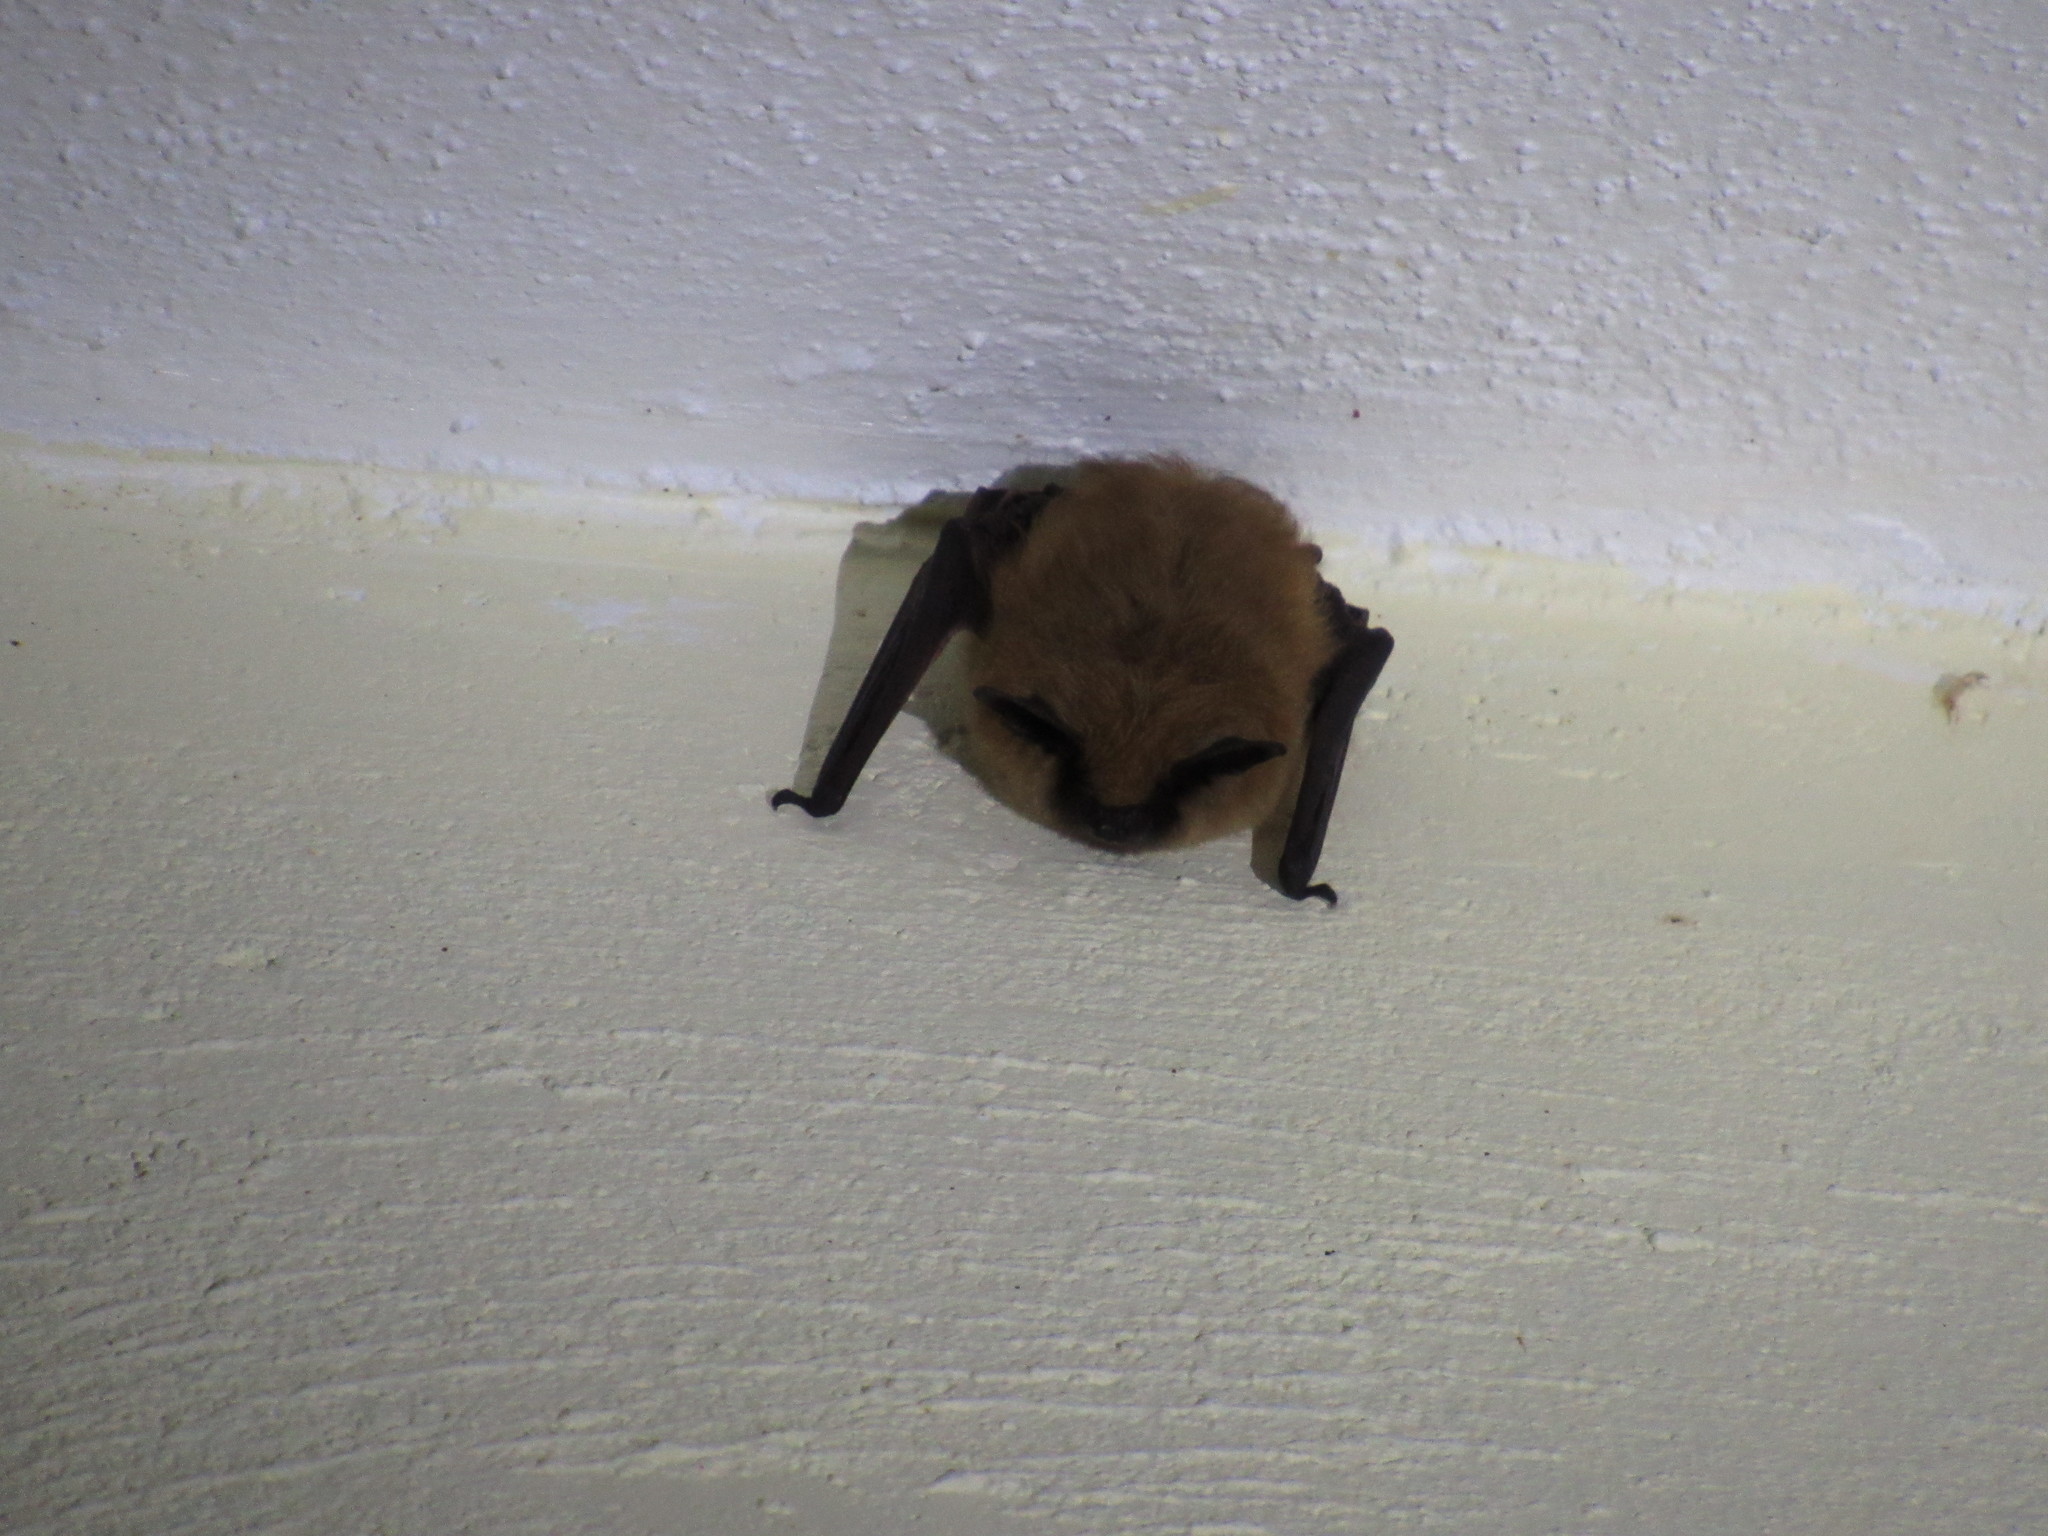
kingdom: Animalia
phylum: Chordata
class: Mammalia
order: Chiroptera
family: Vespertilionidae
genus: Myotis
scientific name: Myotis californicus
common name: Californian myotis
